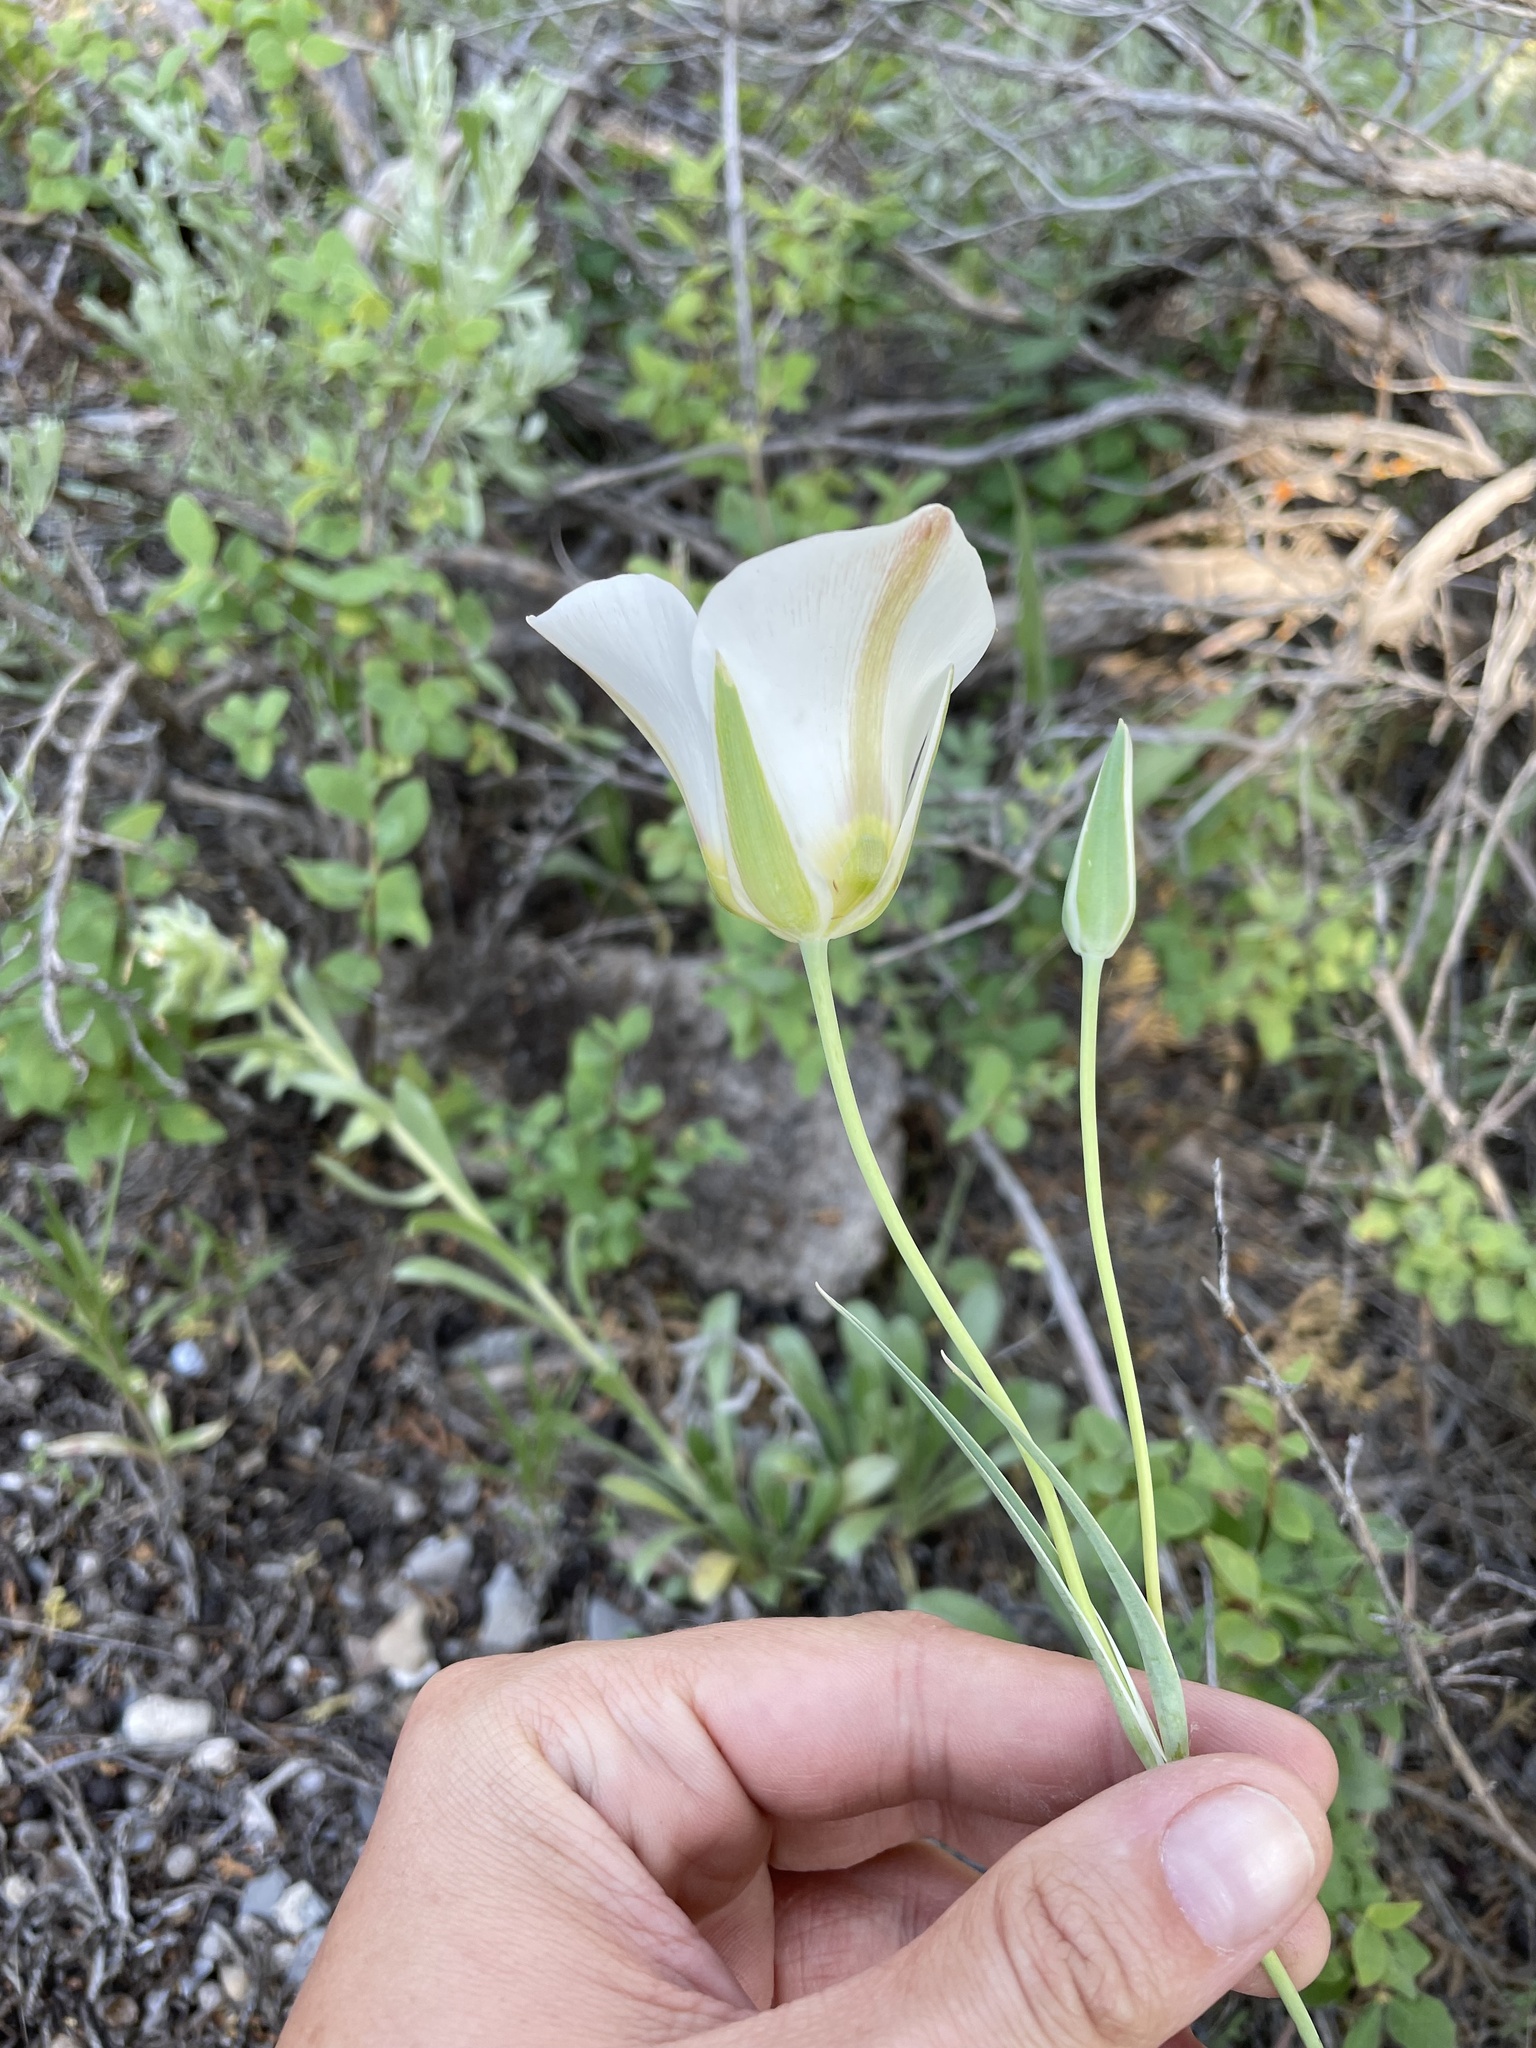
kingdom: Plantae
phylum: Tracheophyta
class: Liliopsida
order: Liliales
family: Liliaceae
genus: Calochortus
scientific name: Calochortus nuttallii
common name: Sego-lily
